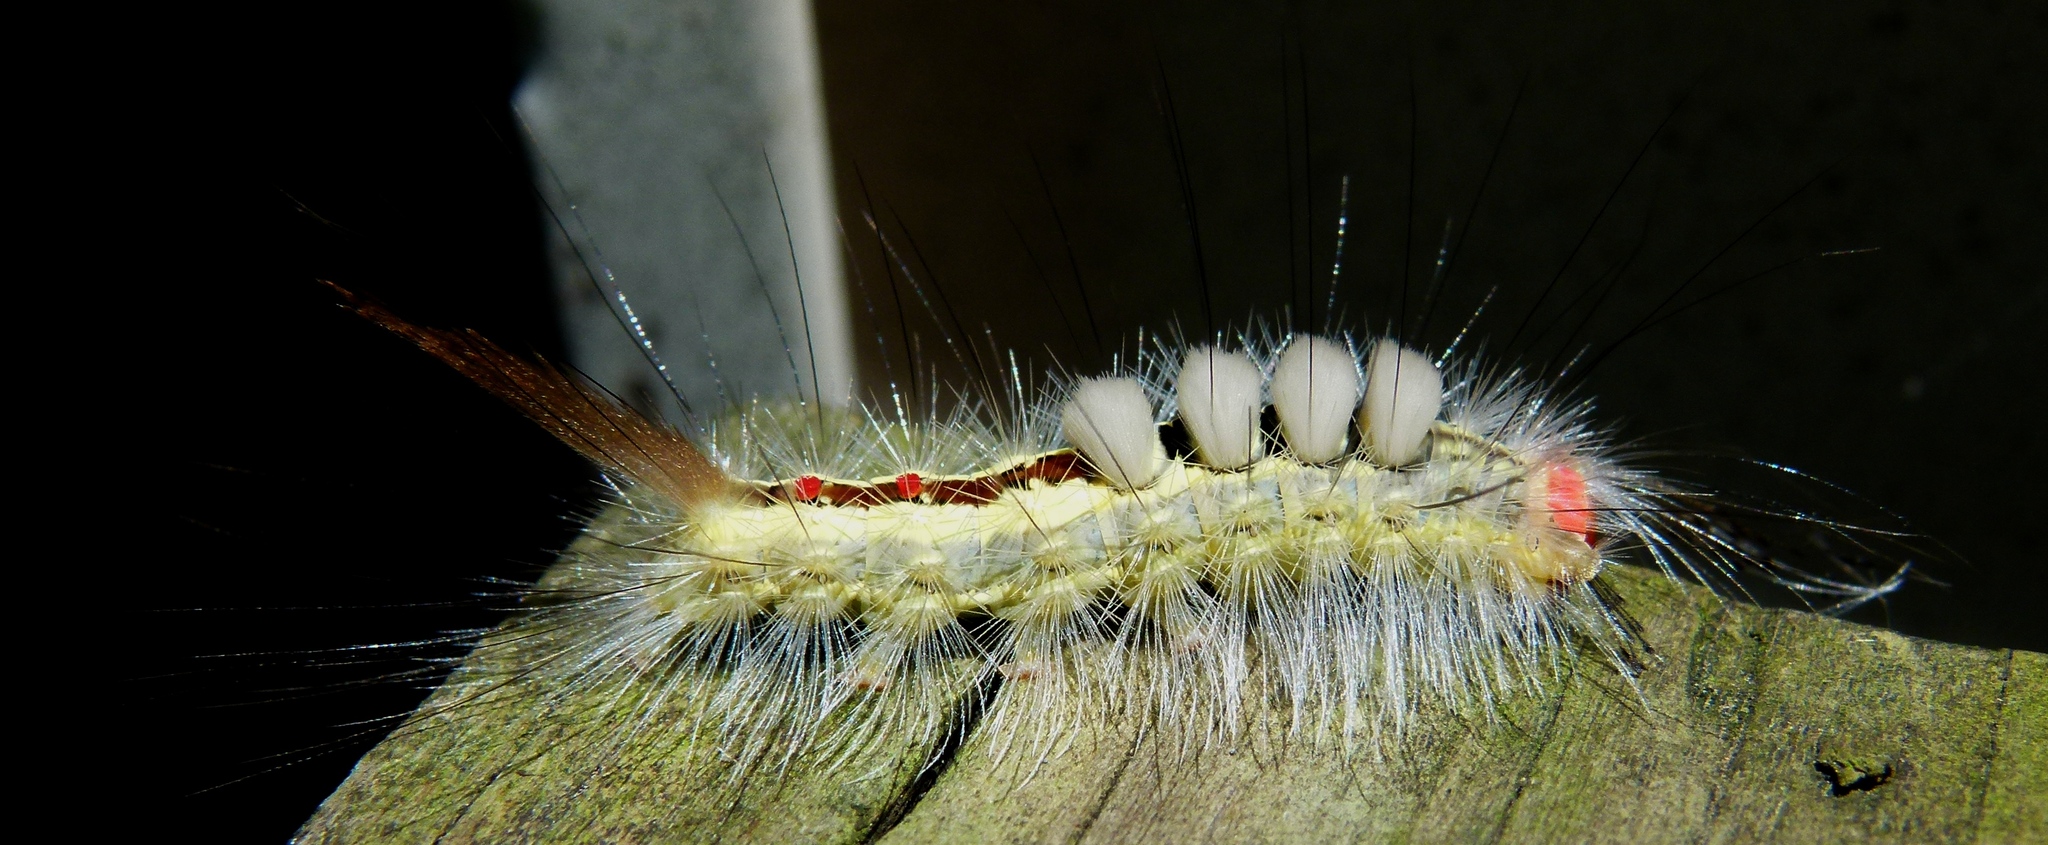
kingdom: Animalia
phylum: Arthropoda
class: Insecta
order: Lepidoptera
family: Erebidae
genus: Orgyia
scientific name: Orgyia leucostigma
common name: White-marked tussock moth
